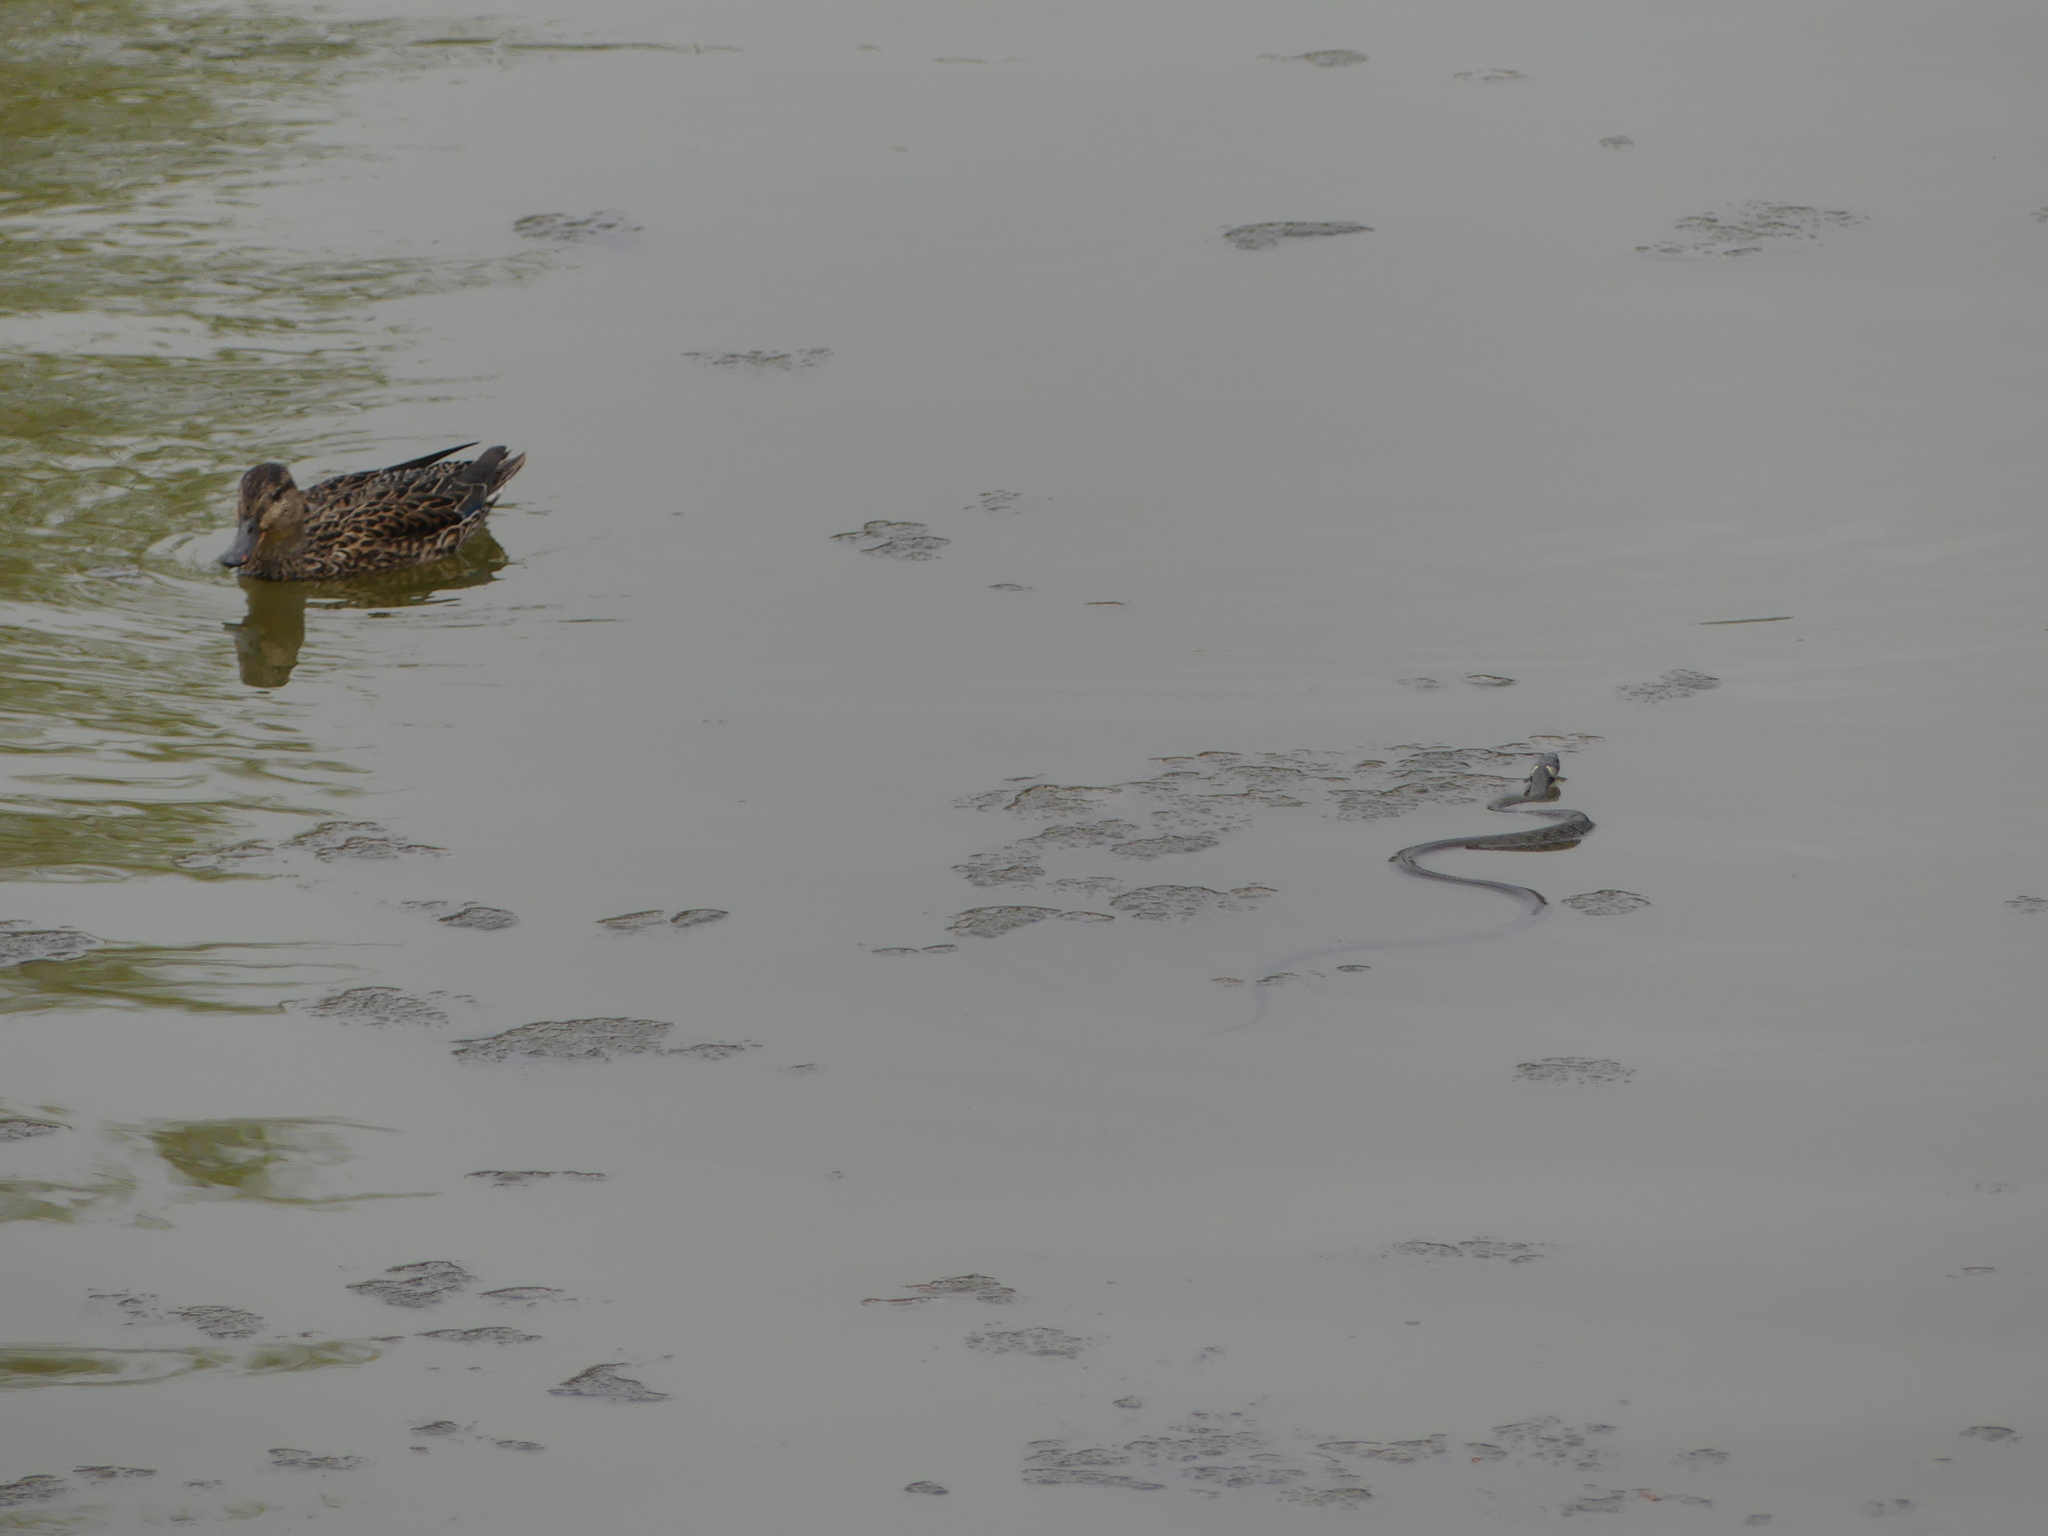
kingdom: Animalia
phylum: Chordata
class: Squamata
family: Colubridae
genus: Natrix
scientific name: Natrix natrix
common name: Grass snake
